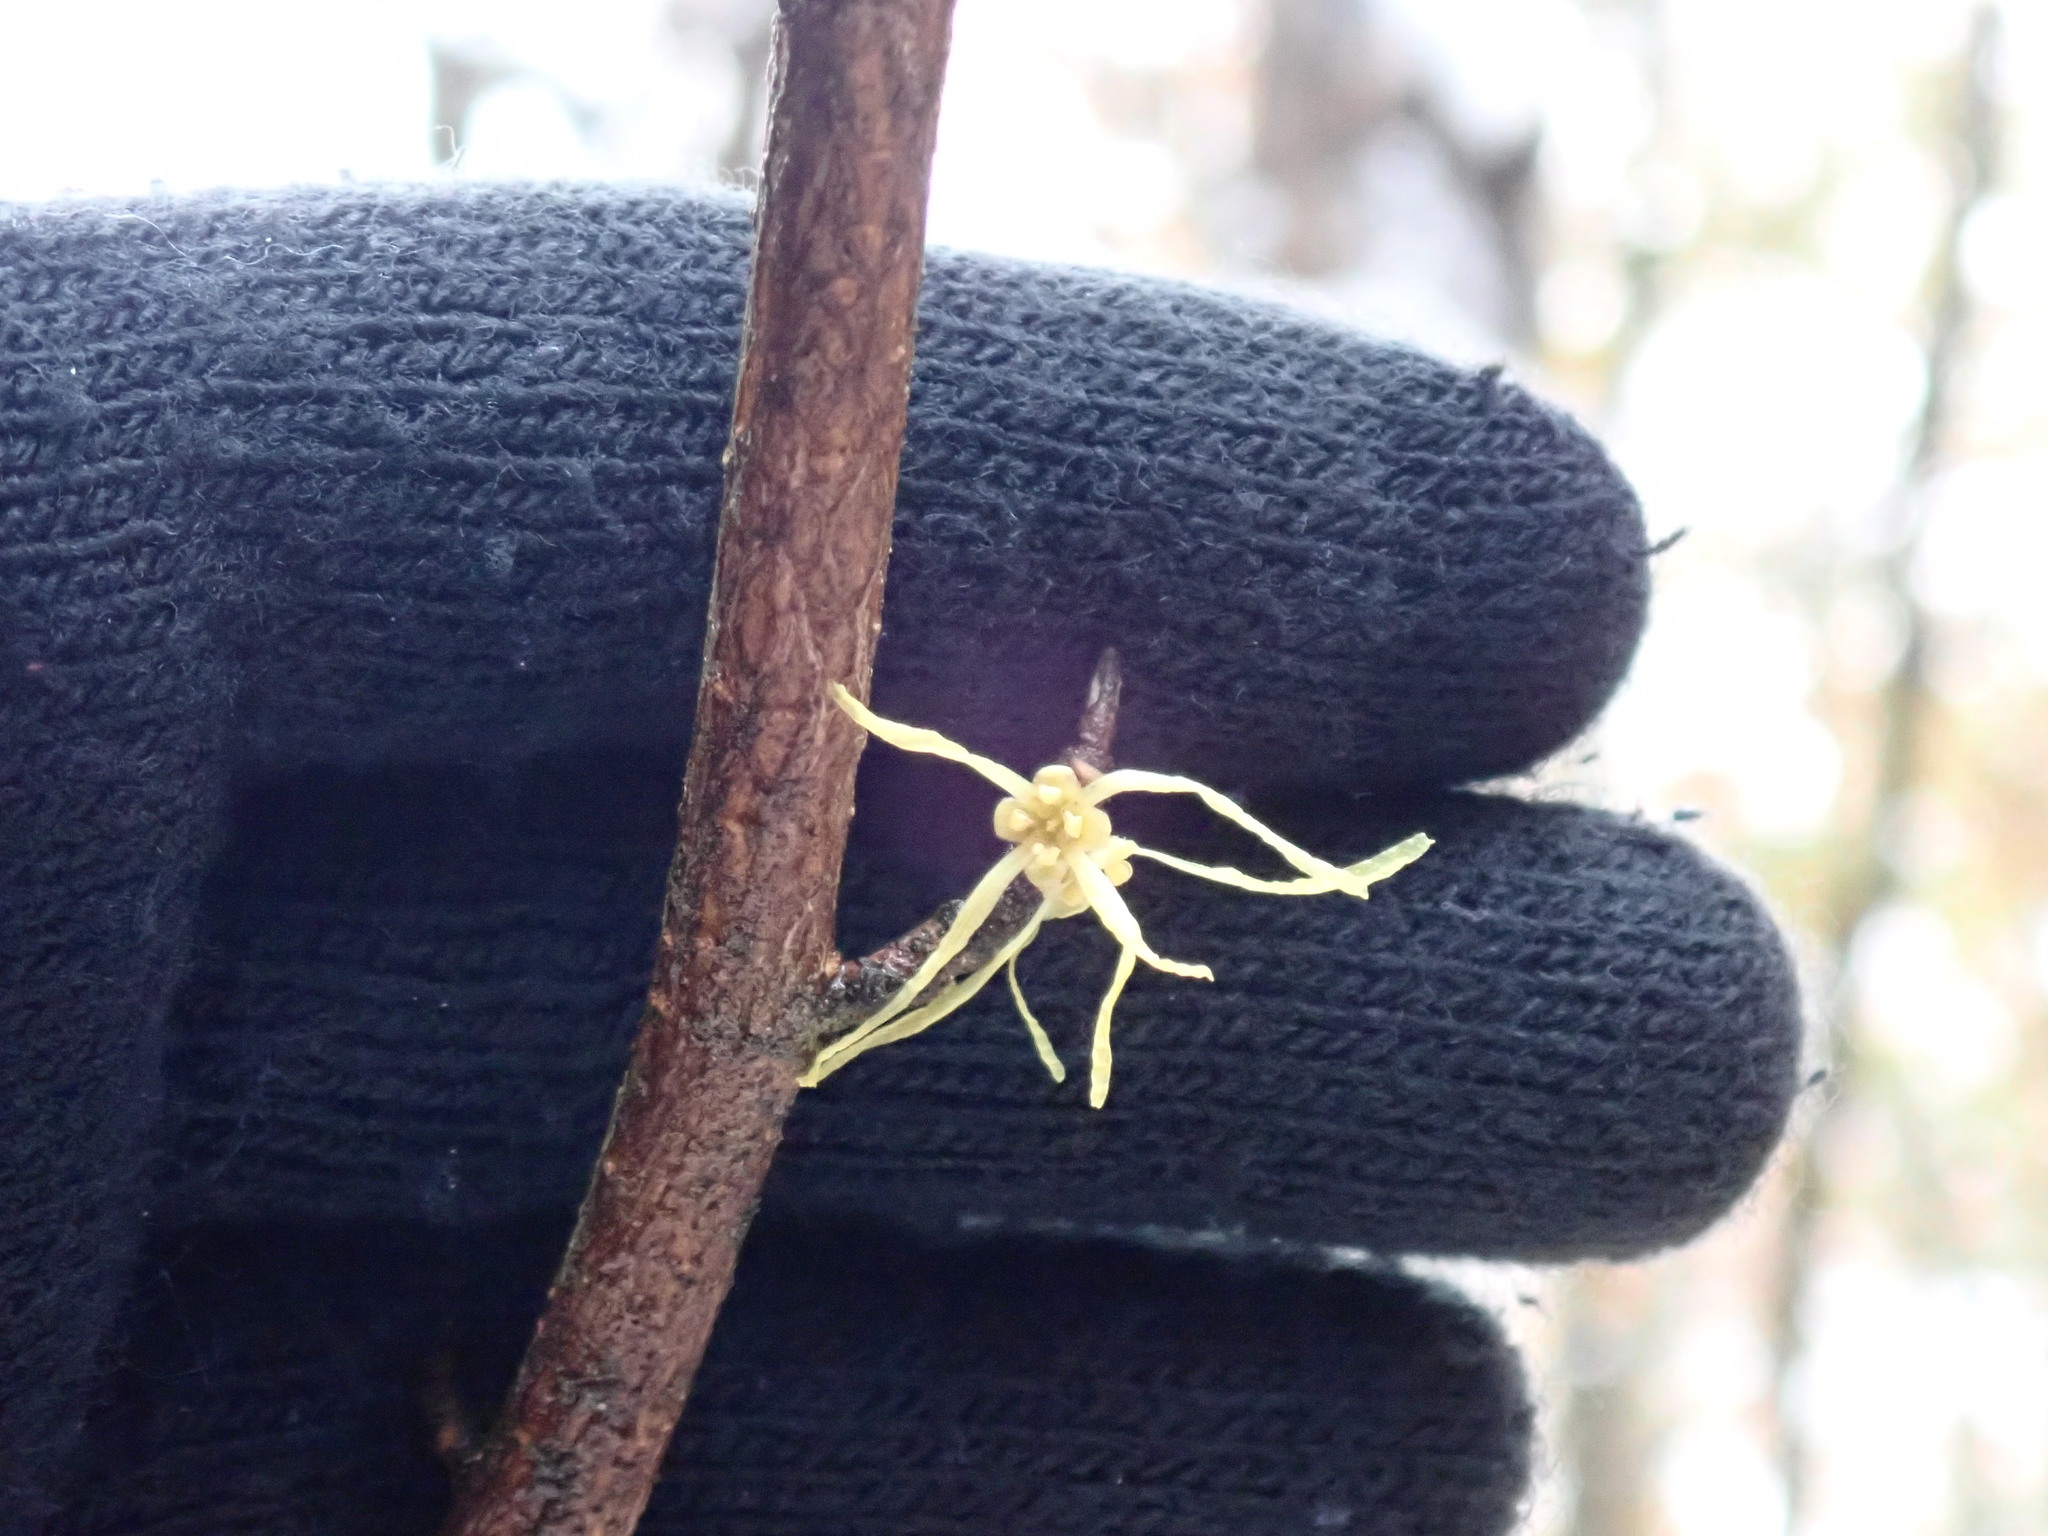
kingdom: Plantae
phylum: Tracheophyta
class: Magnoliopsida
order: Saxifragales
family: Hamamelidaceae
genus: Hamamelis
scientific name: Hamamelis virginiana
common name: Witch-hazel
